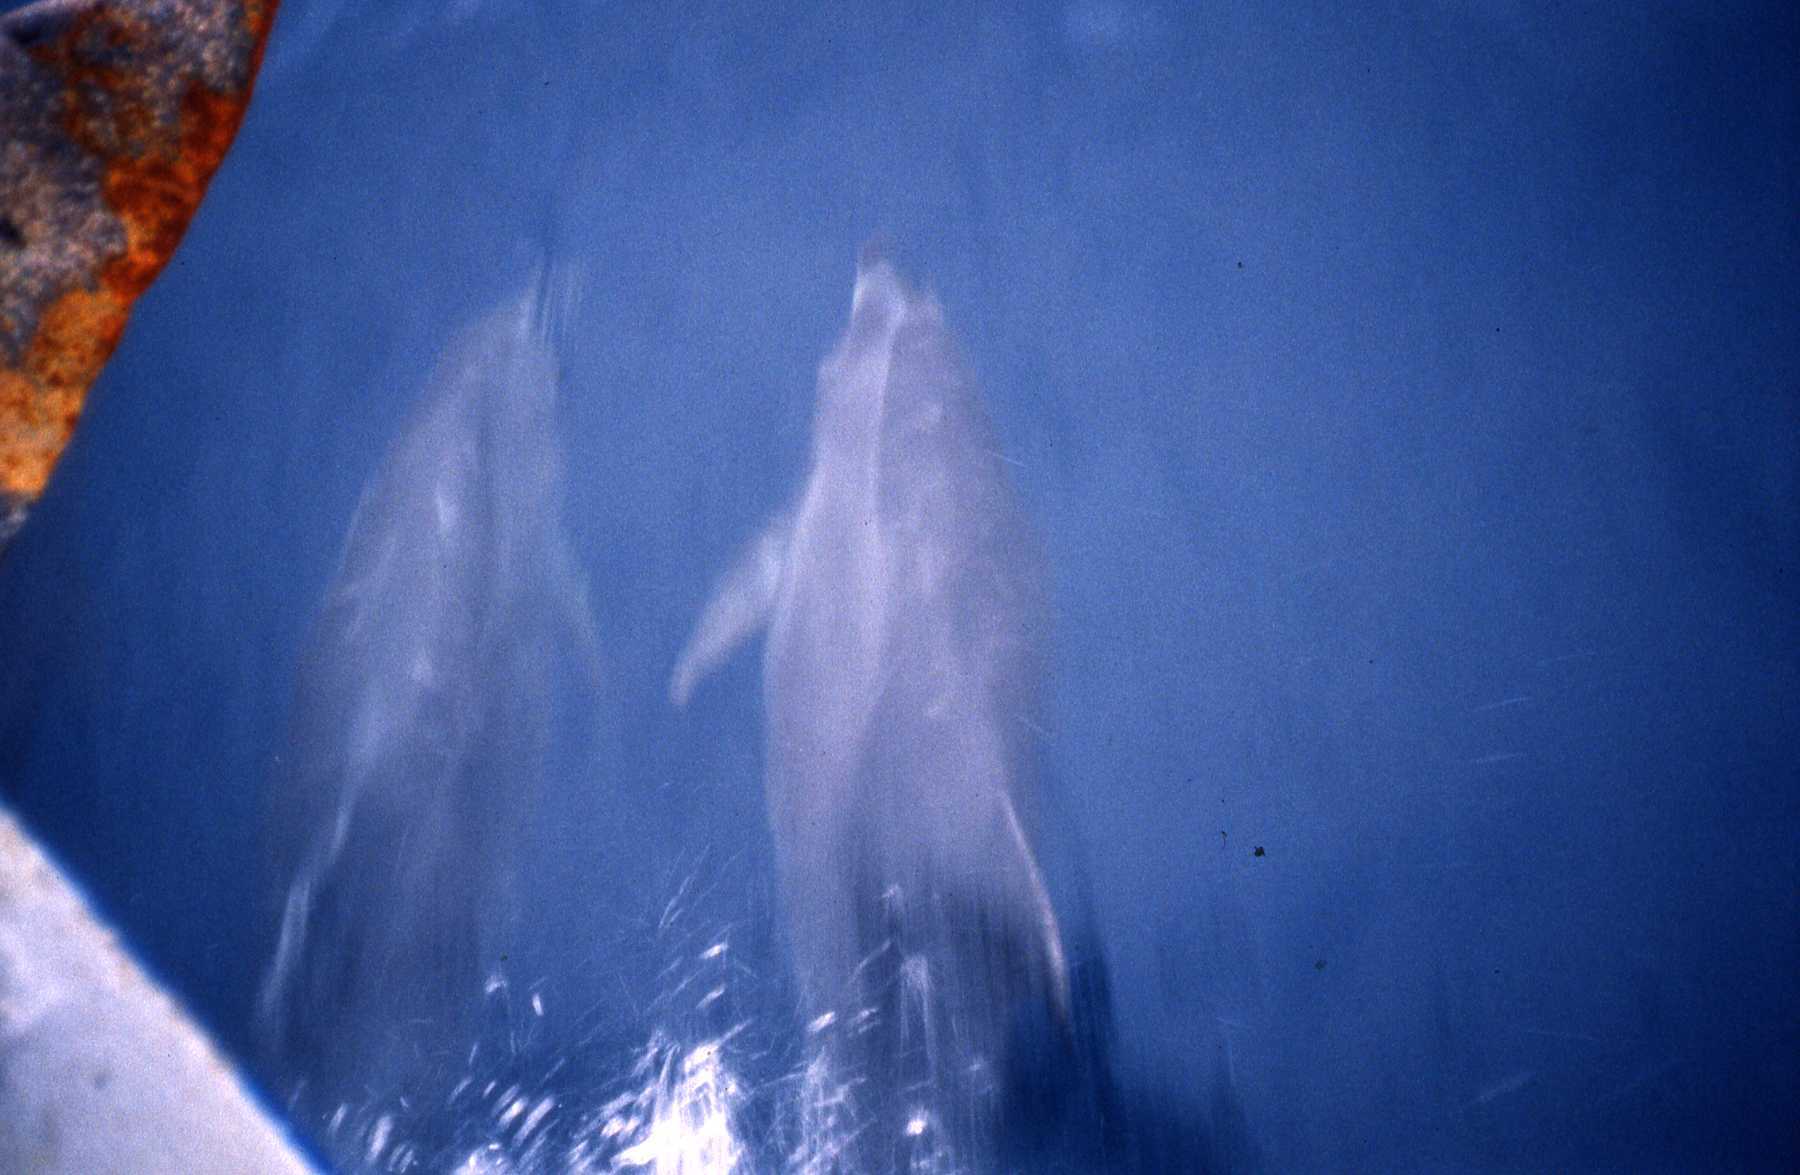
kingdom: Animalia
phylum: Chordata
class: Mammalia
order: Cetacea
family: Delphinidae
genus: Tursiops
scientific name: Tursiops truncatus
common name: Bottlenose dolphin
